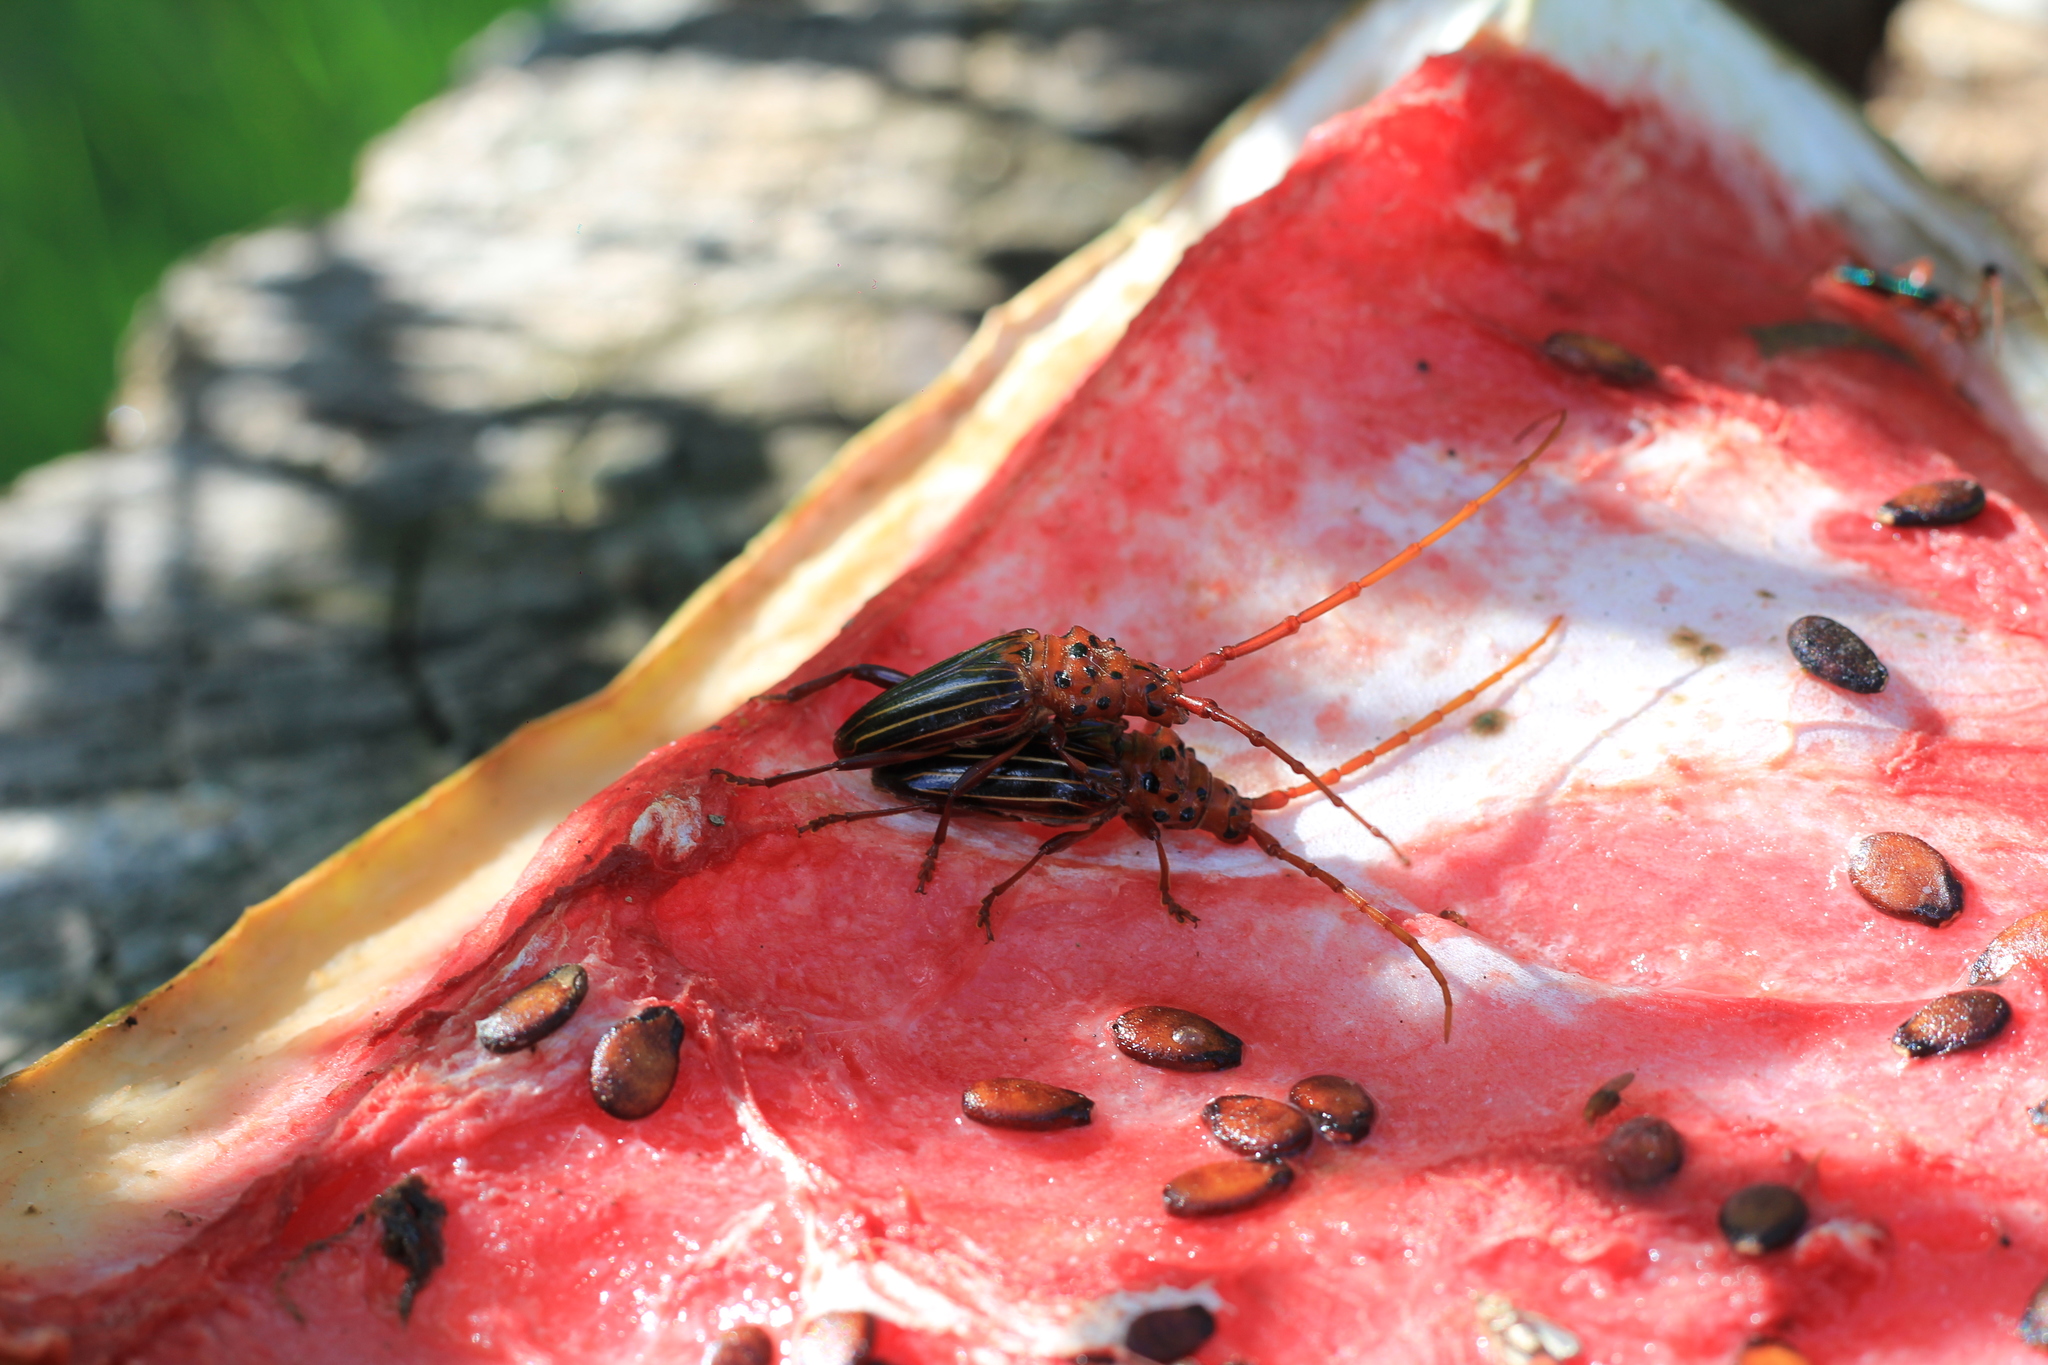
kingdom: Animalia
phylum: Arthropoda
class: Insecta
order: Coleoptera
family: Cerambycidae
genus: Chydarteres
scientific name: Chydarteres striatus
